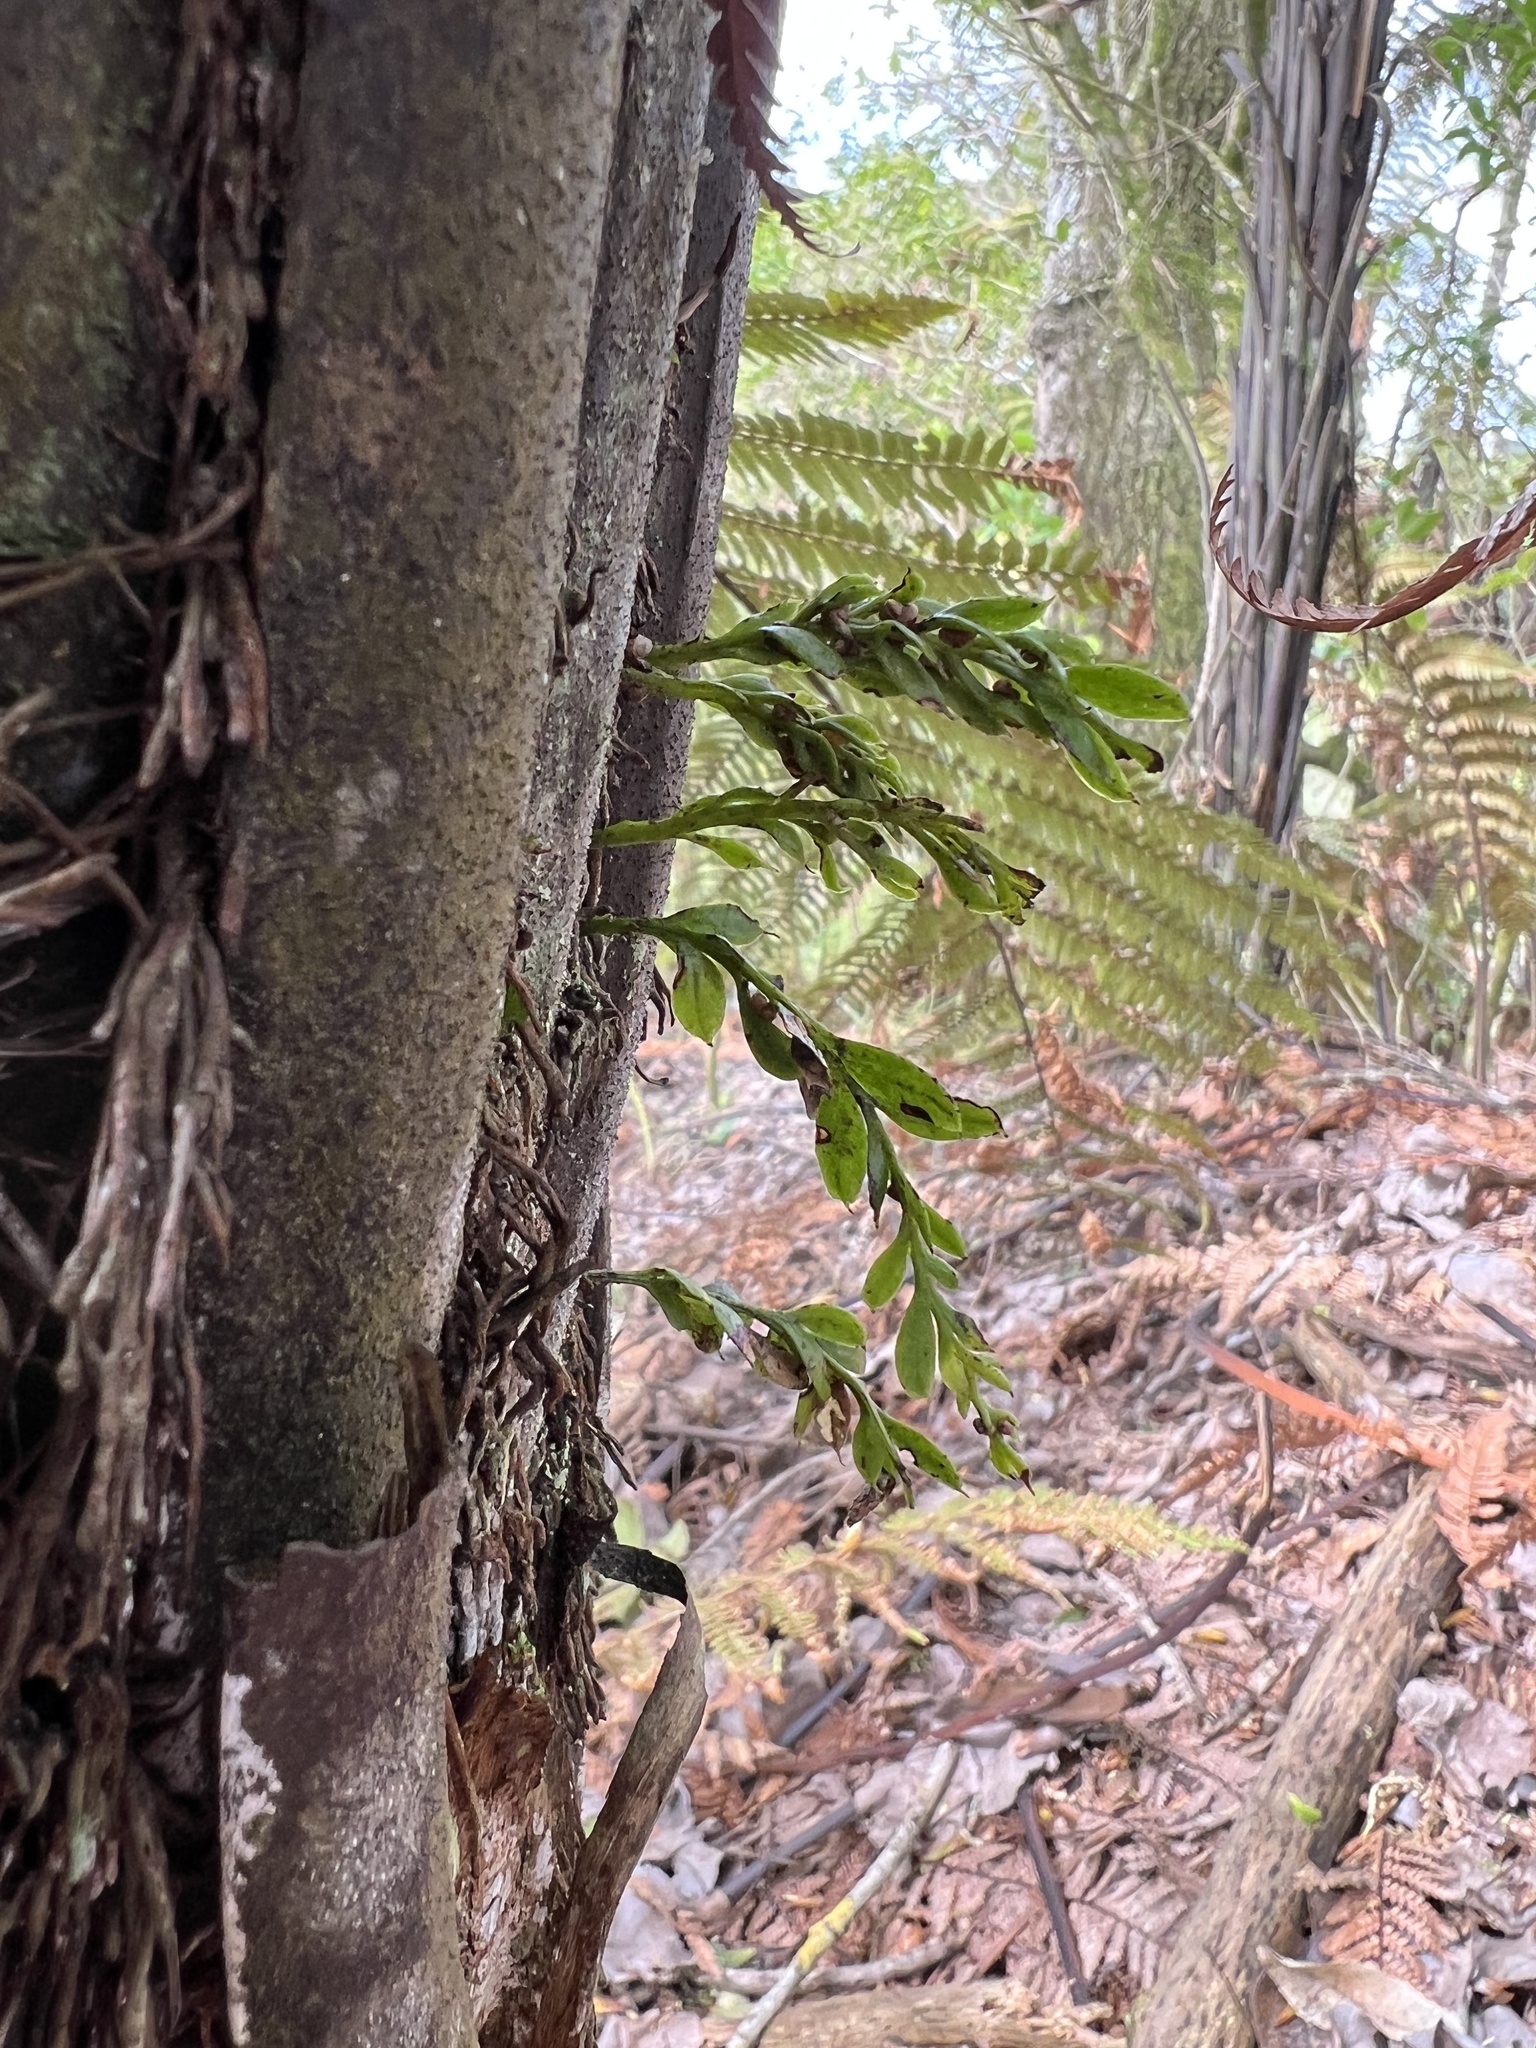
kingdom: Plantae
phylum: Tracheophyta
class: Polypodiopsida
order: Cyatheales
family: Dicksoniaceae
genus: Dicksonia
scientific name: Dicksonia squarrosa
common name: Hard treefern
